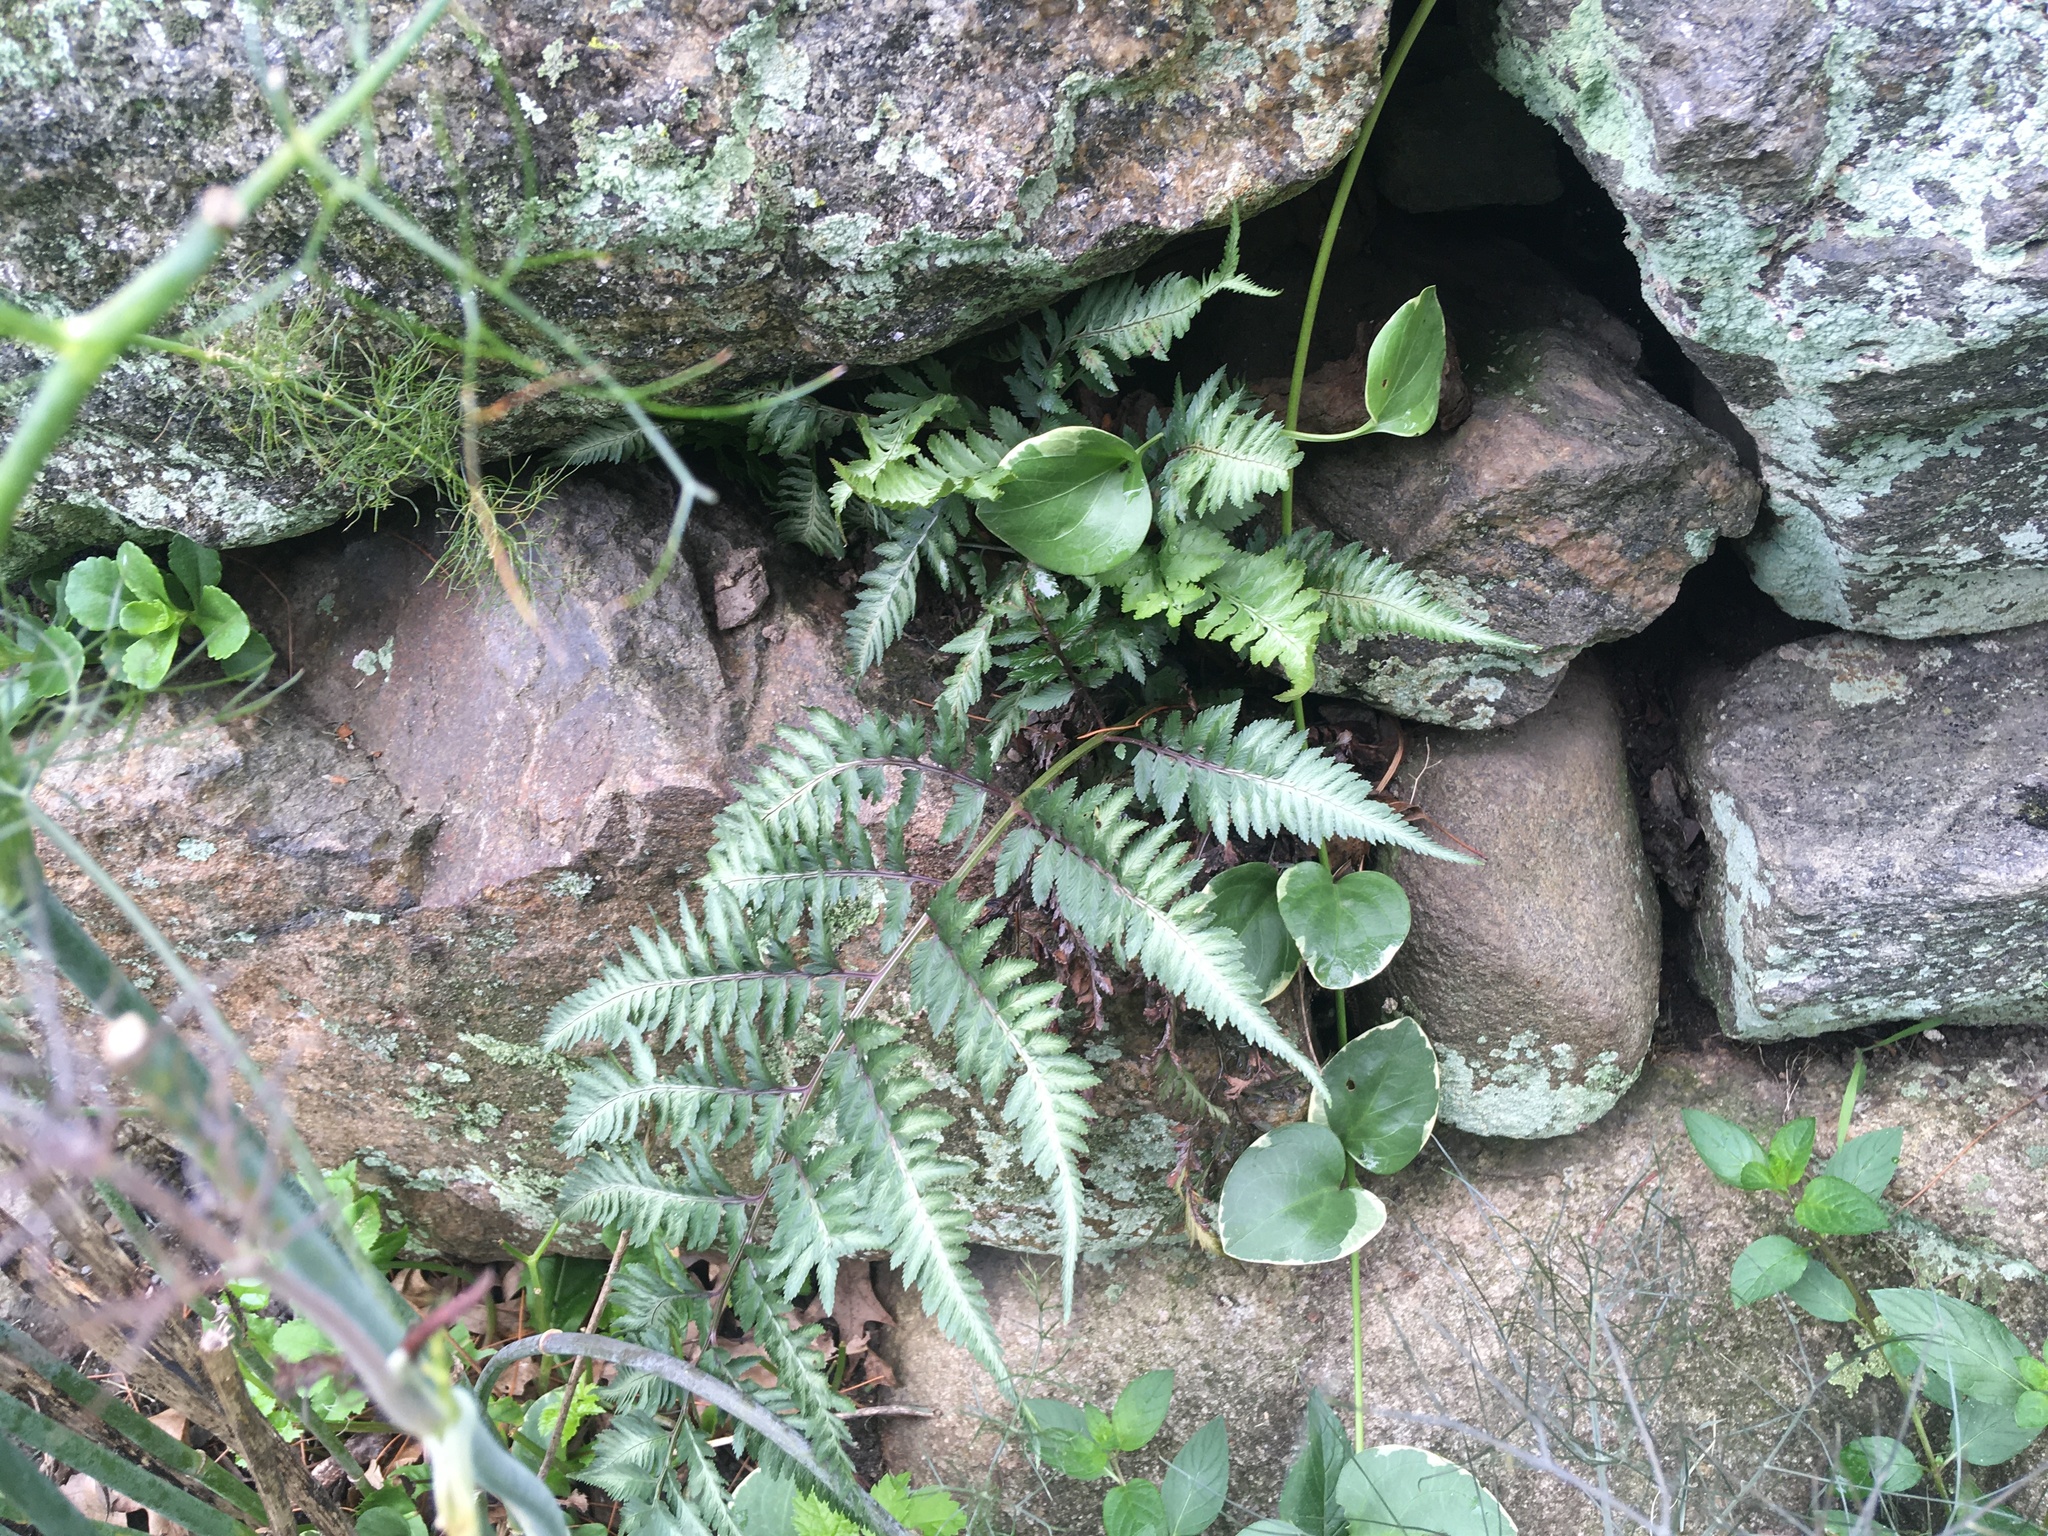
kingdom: Plantae
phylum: Tracheophyta
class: Polypodiopsida
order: Polypodiales
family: Athyriaceae
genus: Anisocampium
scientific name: Anisocampium niponicum
